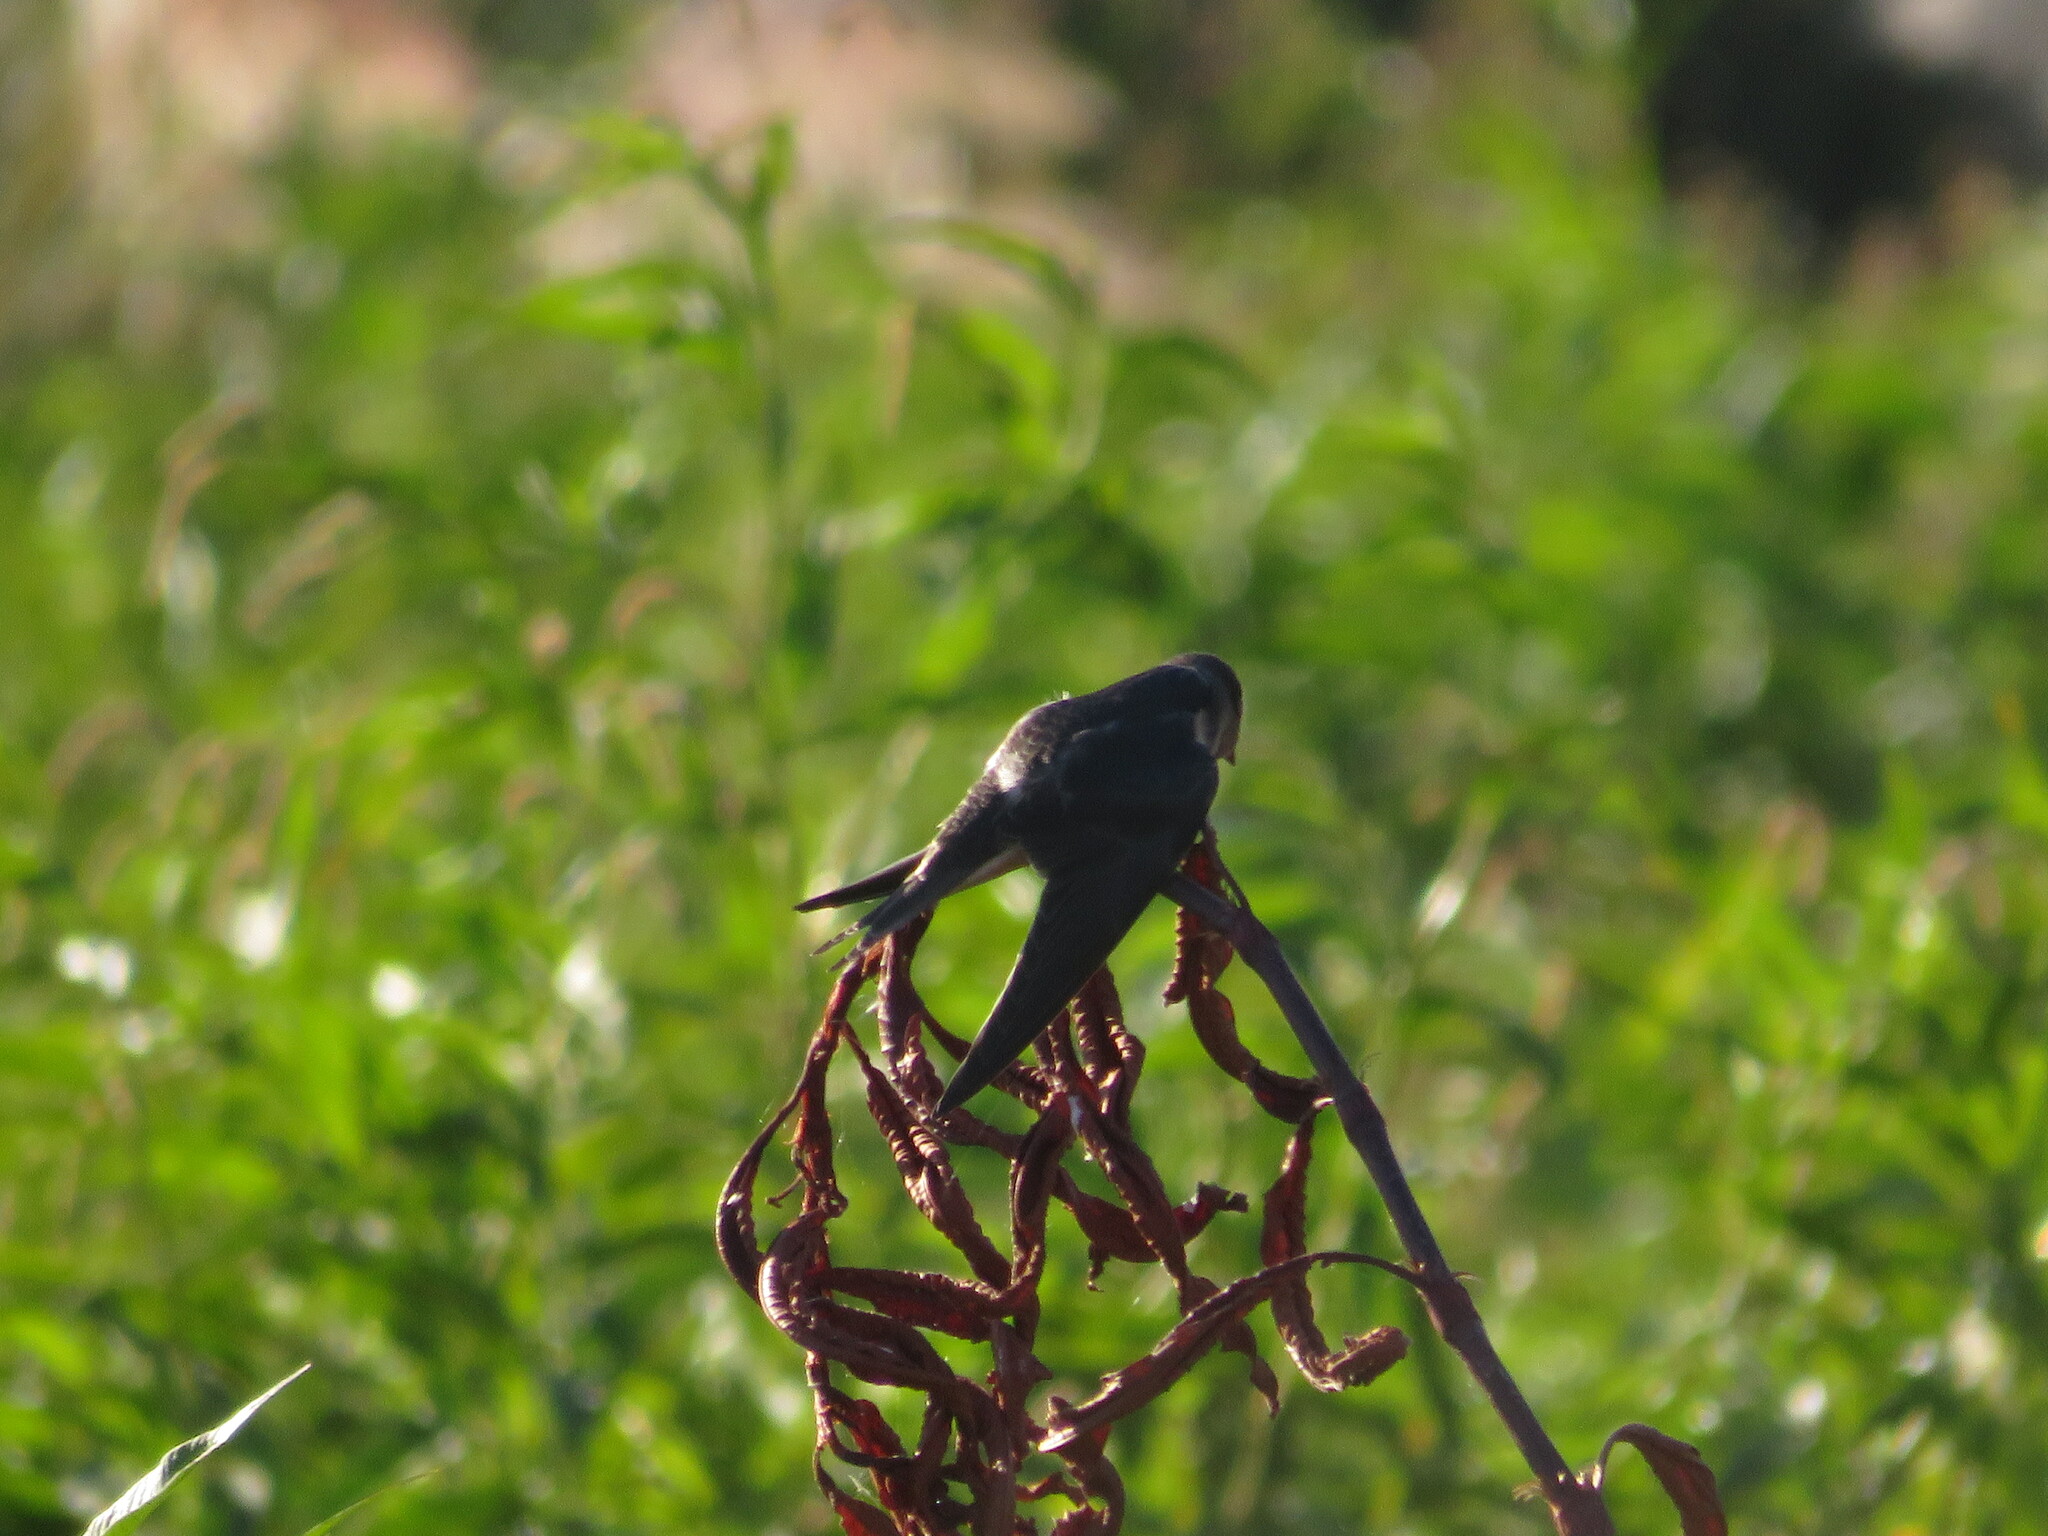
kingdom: Animalia
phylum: Chordata
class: Aves
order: Passeriformes
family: Hirundinidae
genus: Hirundo
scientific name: Hirundo rustica
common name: Barn swallow
